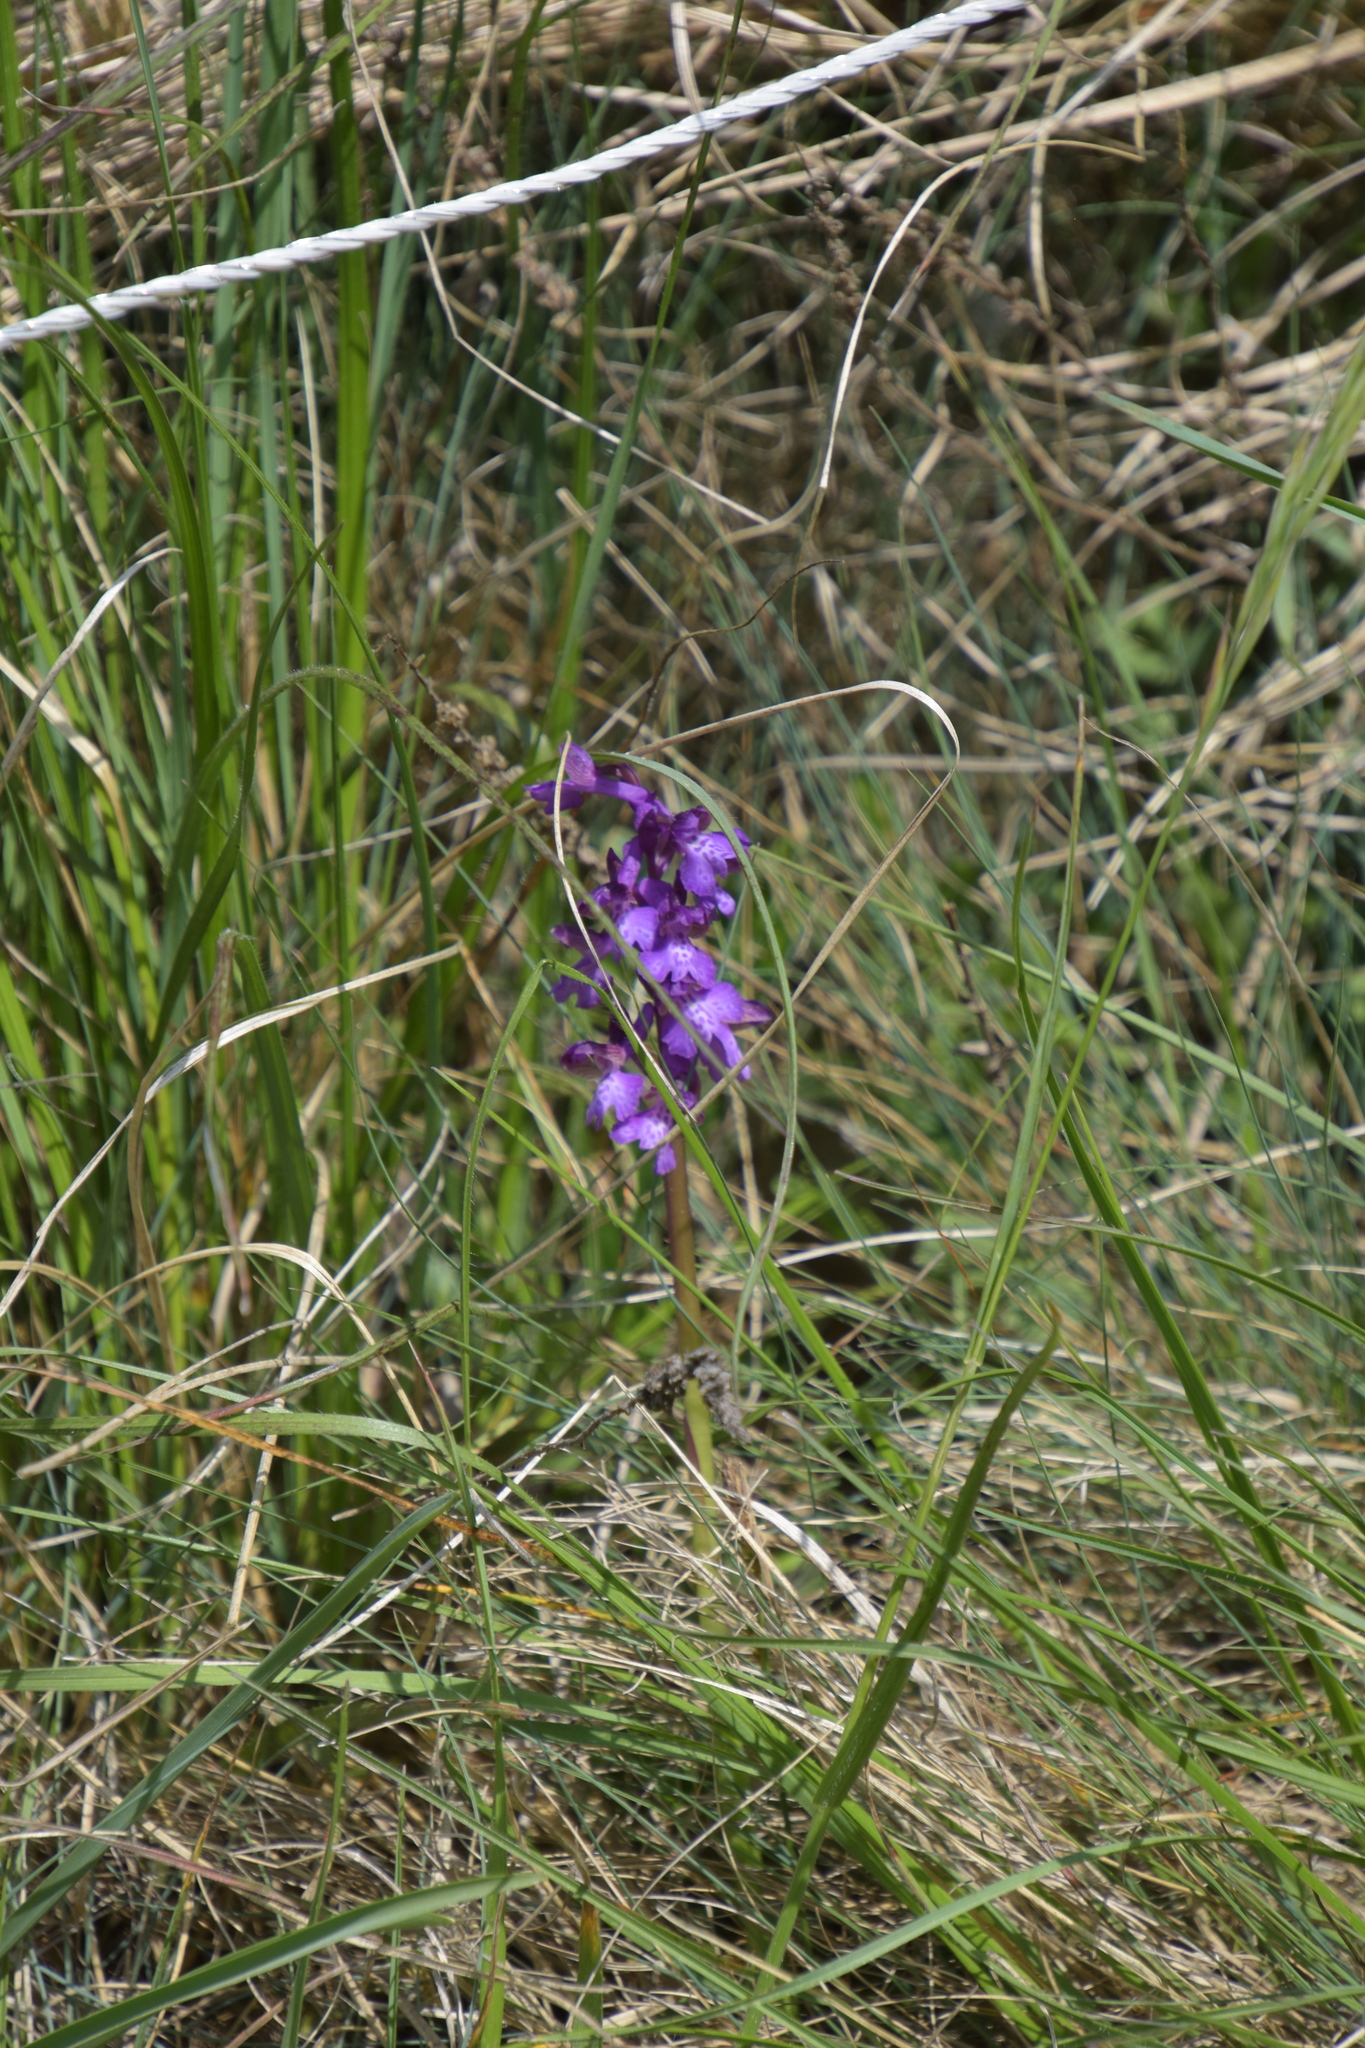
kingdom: Plantae
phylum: Tracheophyta
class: Liliopsida
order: Asparagales
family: Orchidaceae
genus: Anacamptis
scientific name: Anacamptis morio
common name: Green-winged orchid
